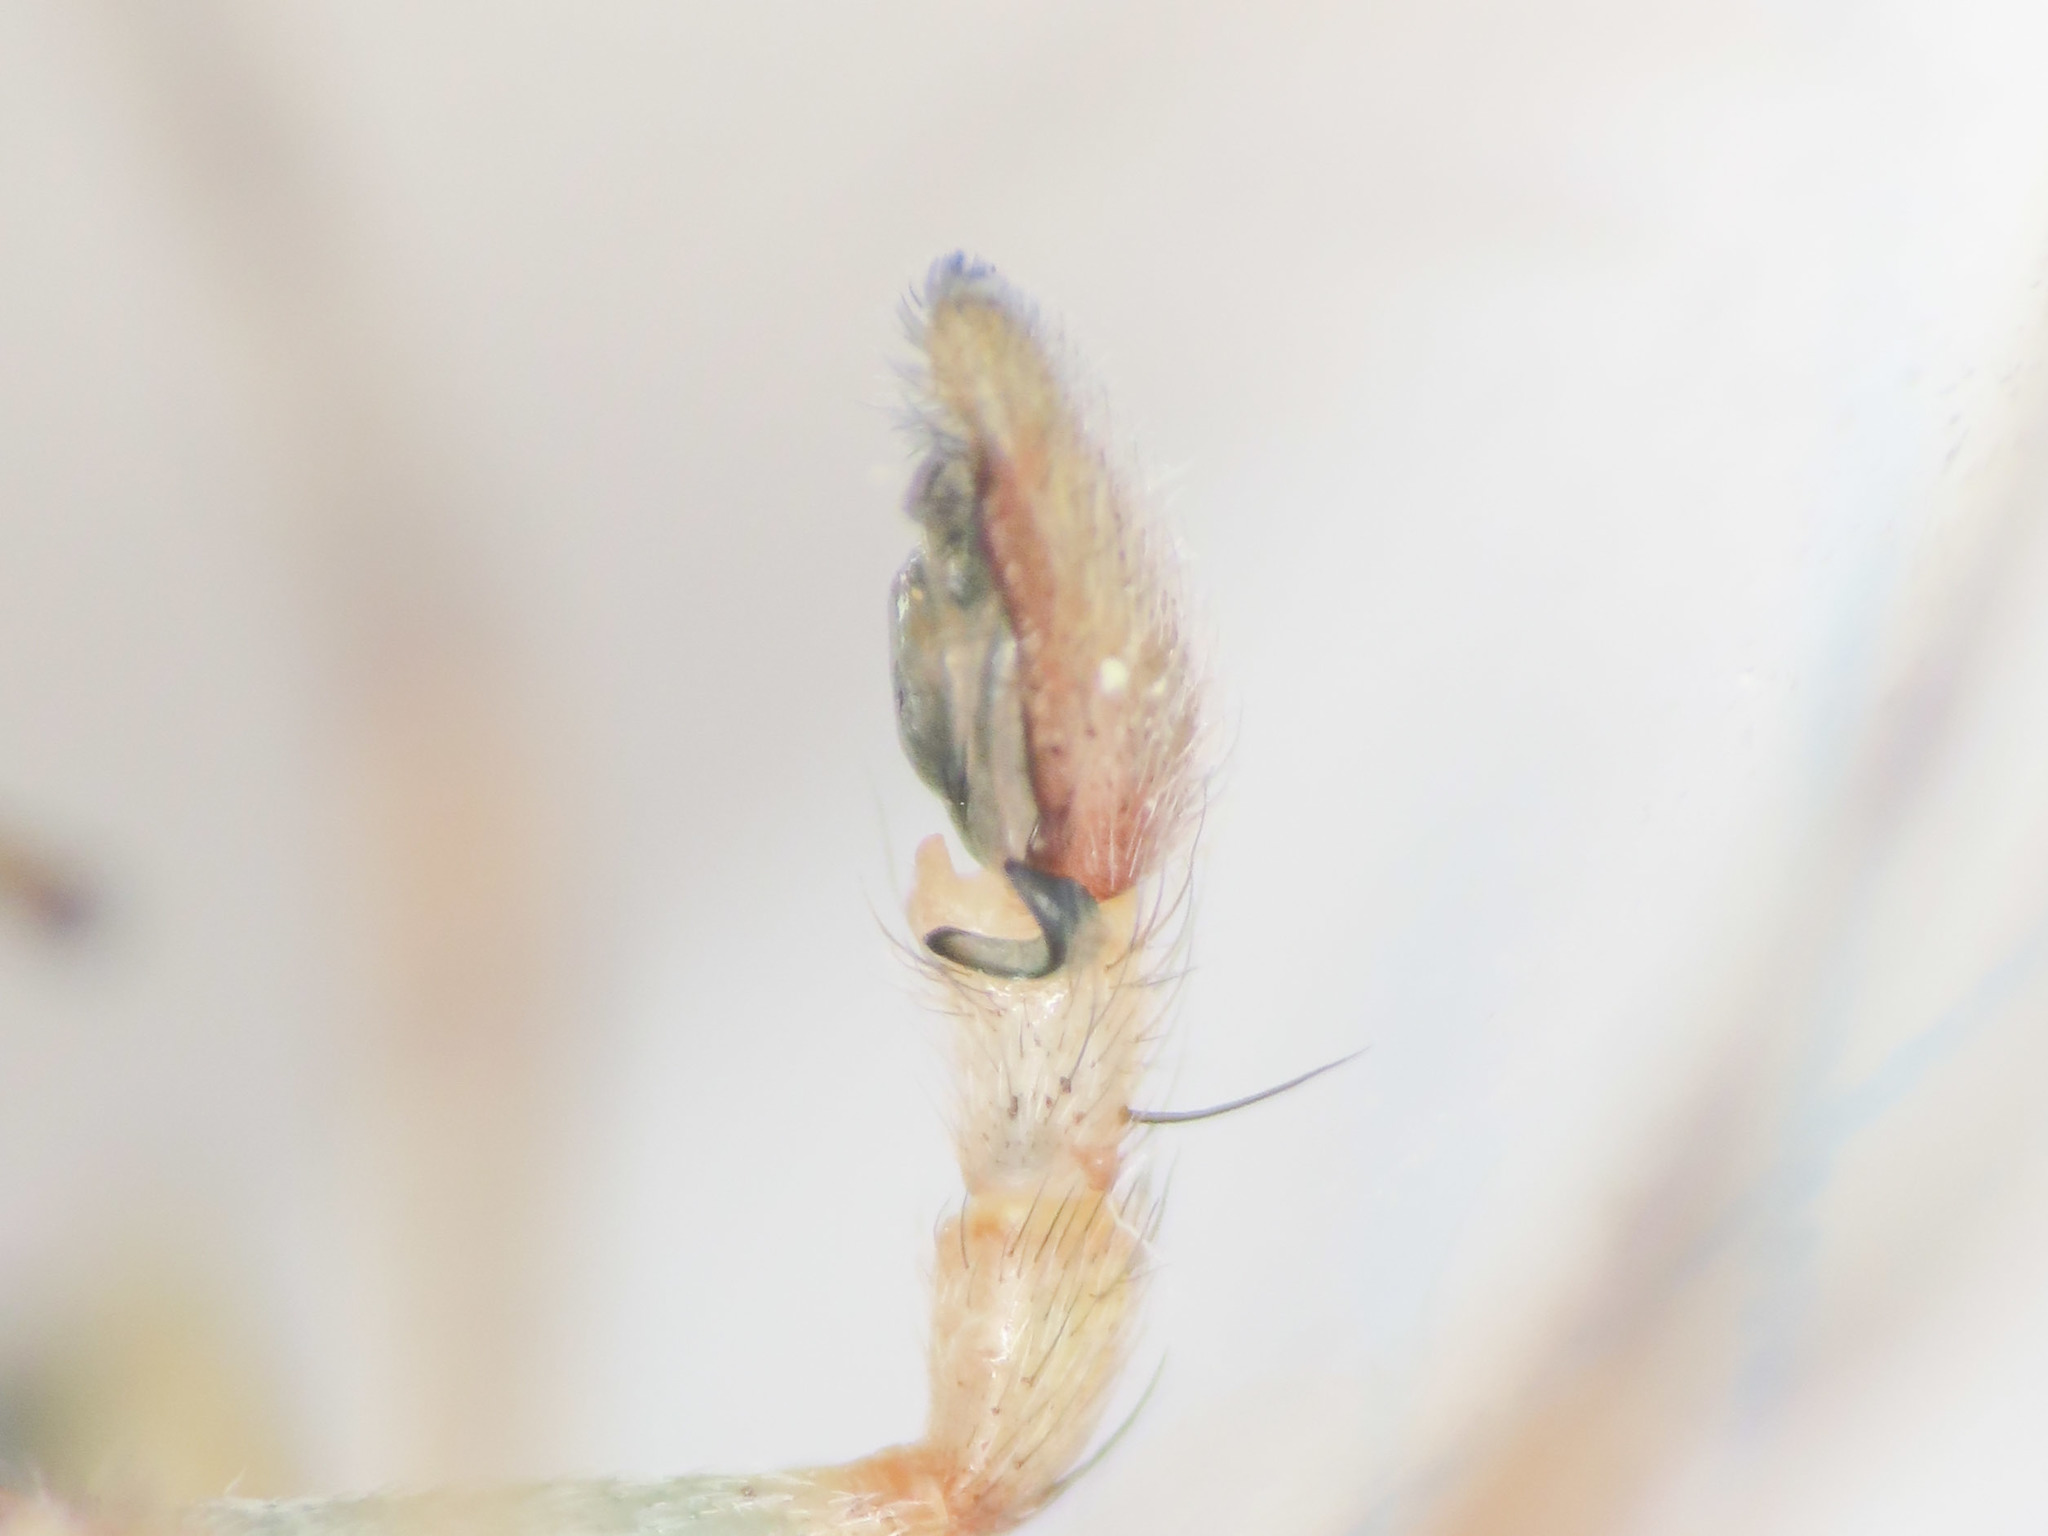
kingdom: Animalia
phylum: Arthropoda
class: Arachnida
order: Araneae
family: Philodromidae
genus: Philodromus
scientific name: Philodromus longipalpis
